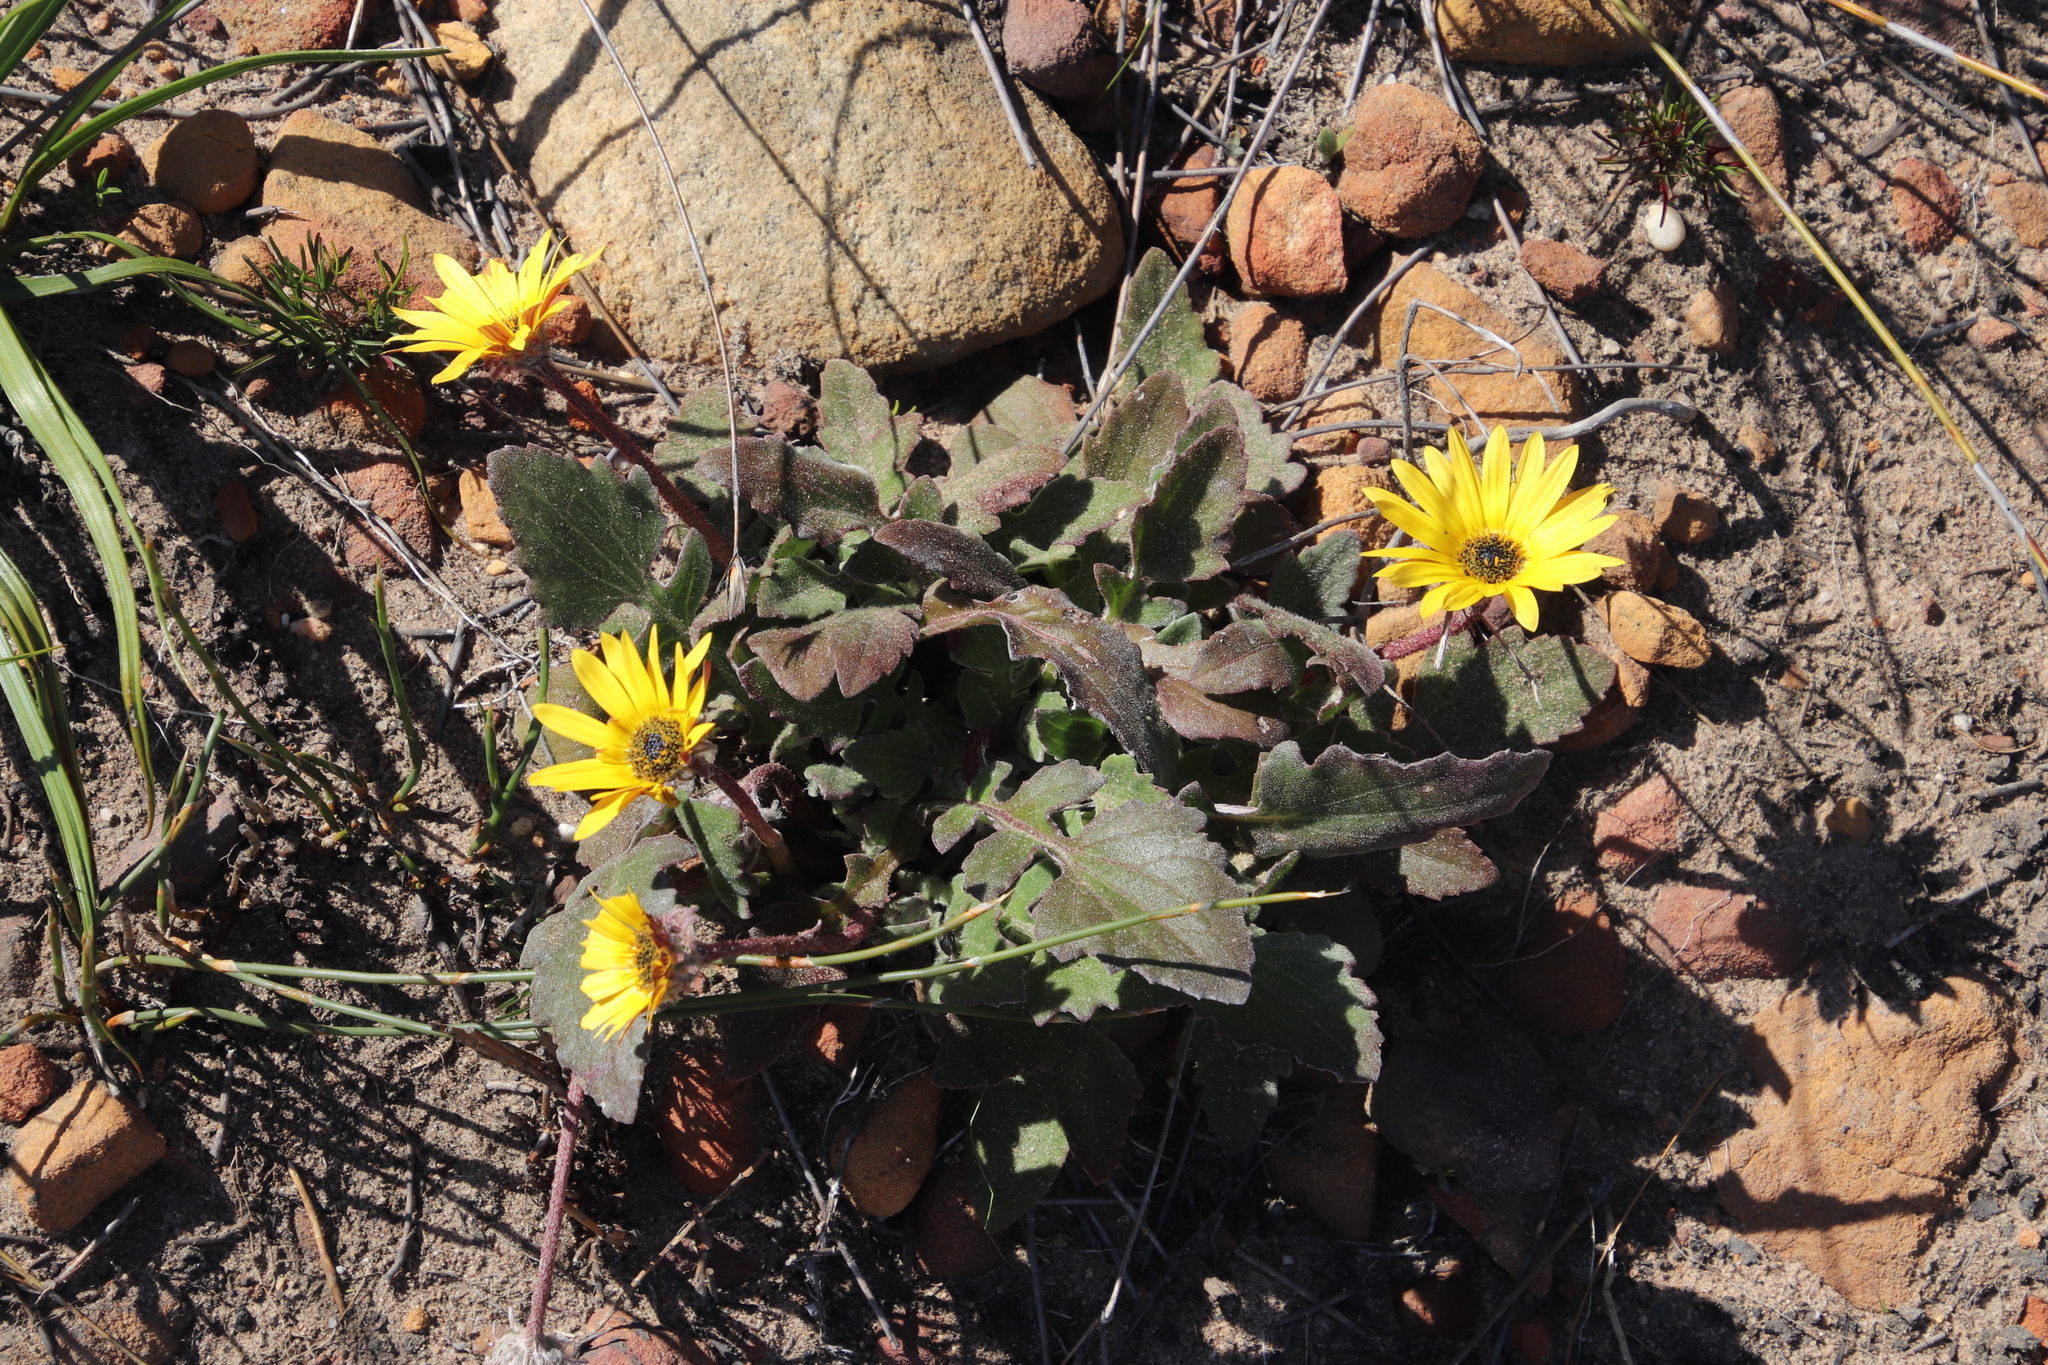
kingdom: Plantae
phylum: Tracheophyta
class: Magnoliopsida
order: Asterales
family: Asteraceae
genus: Arctotis
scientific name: Arctotis acaulis
